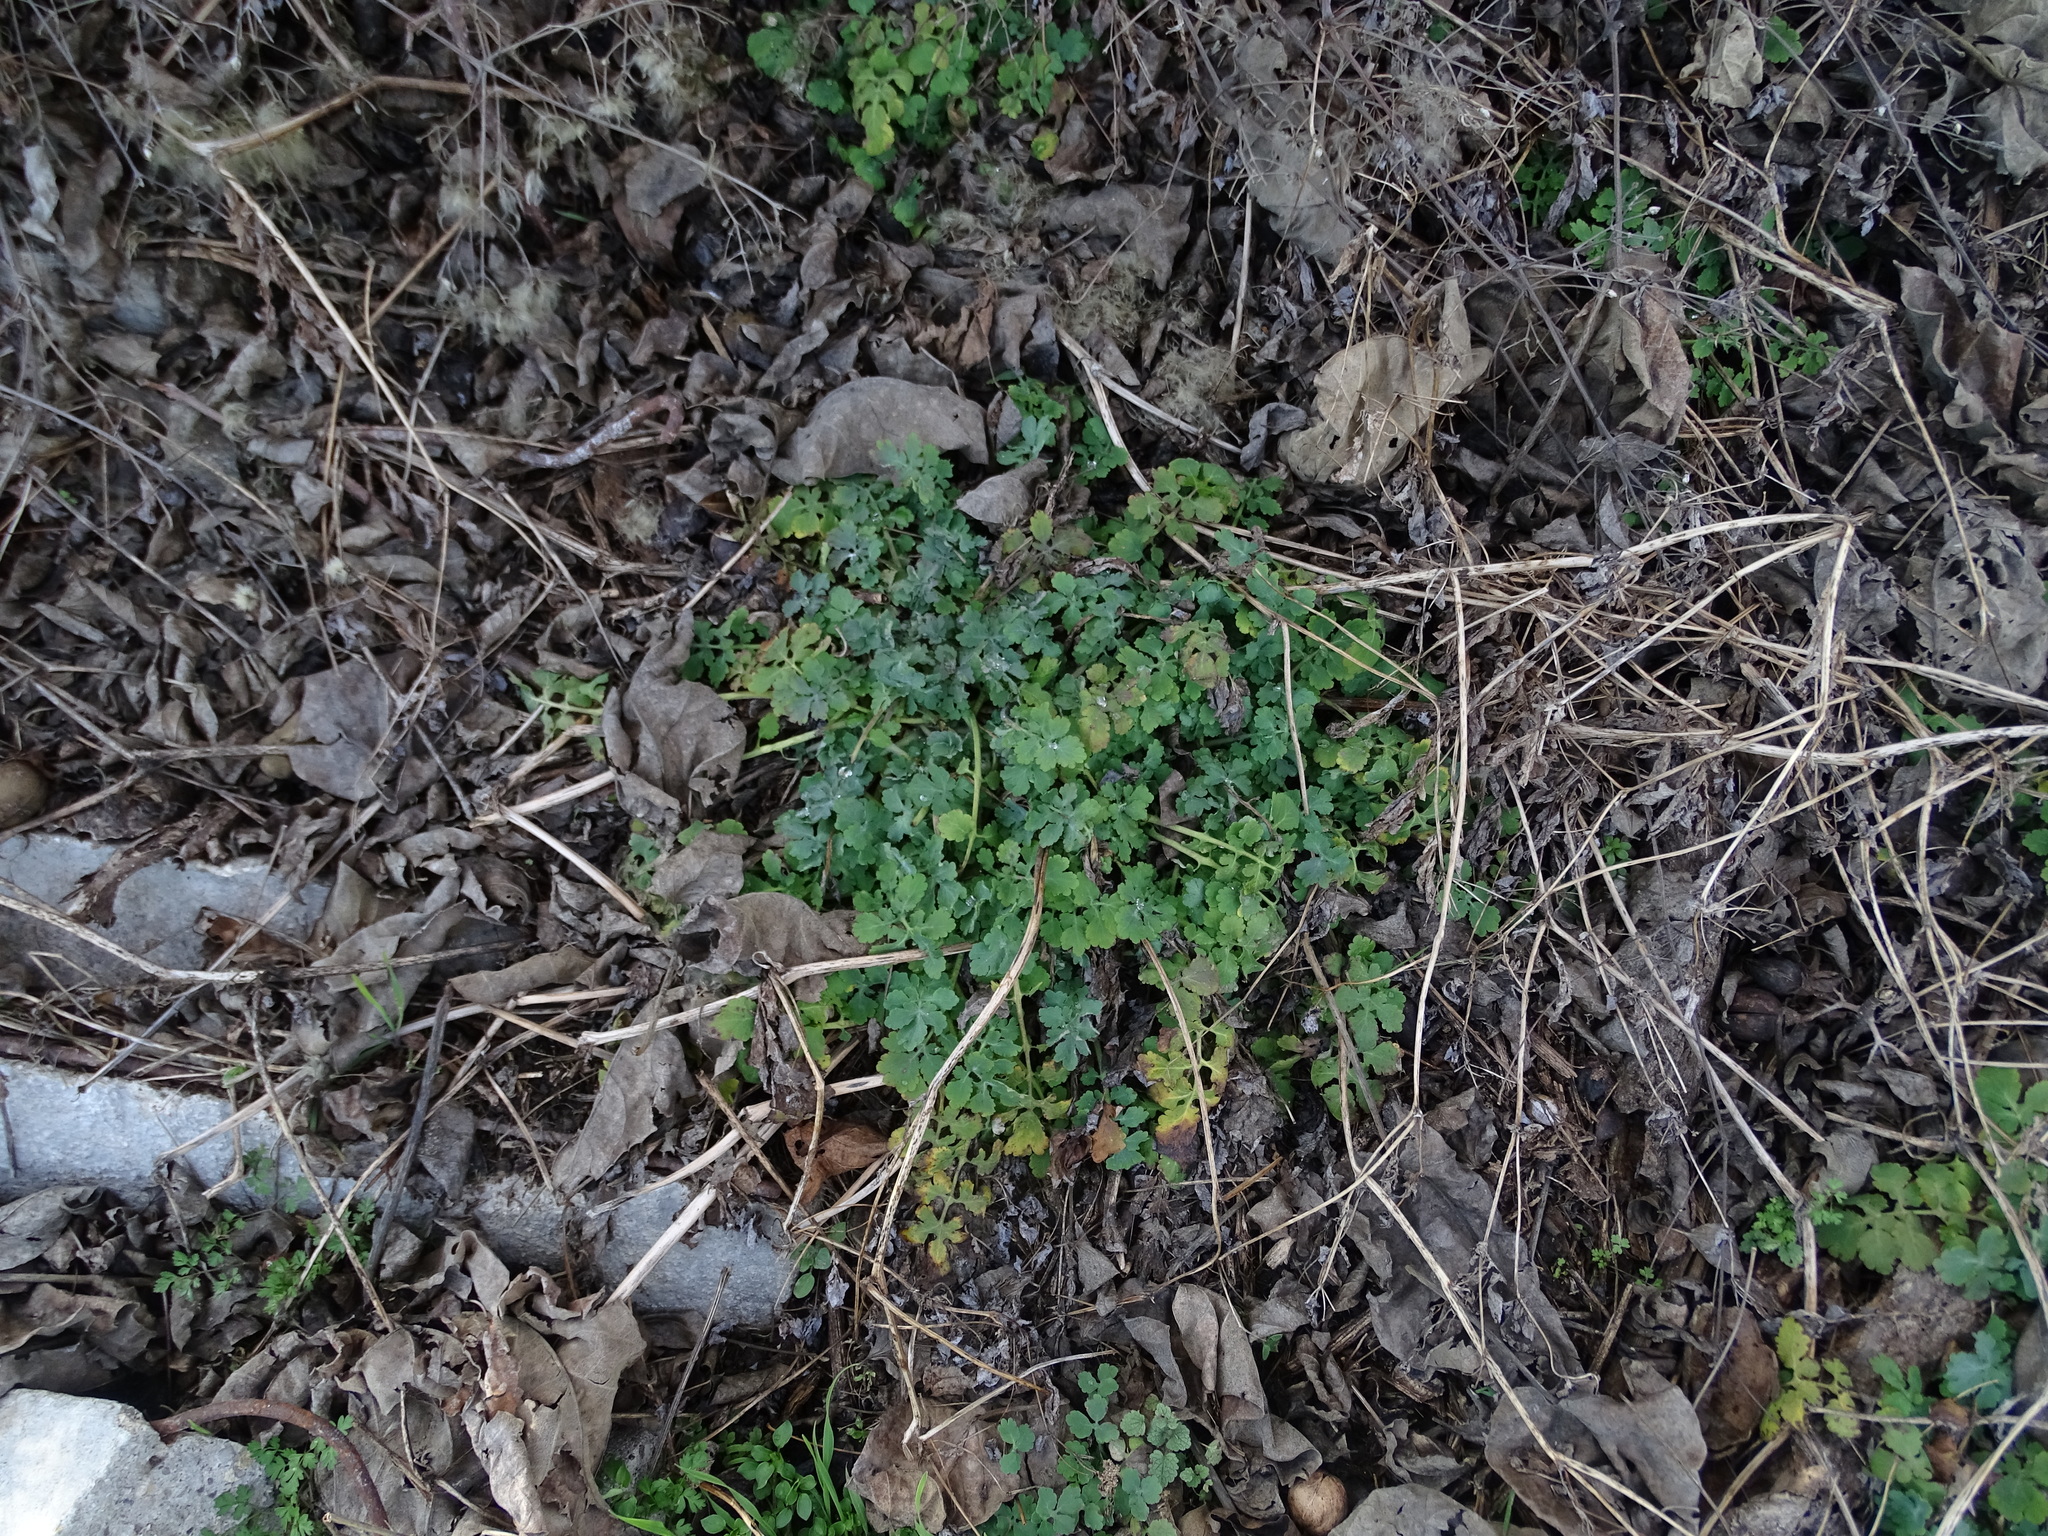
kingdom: Plantae
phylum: Tracheophyta
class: Magnoliopsida
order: Ranunculales
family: Papaveraceae
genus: Chelidonium
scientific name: Chelidonium majus
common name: Greater celandine
